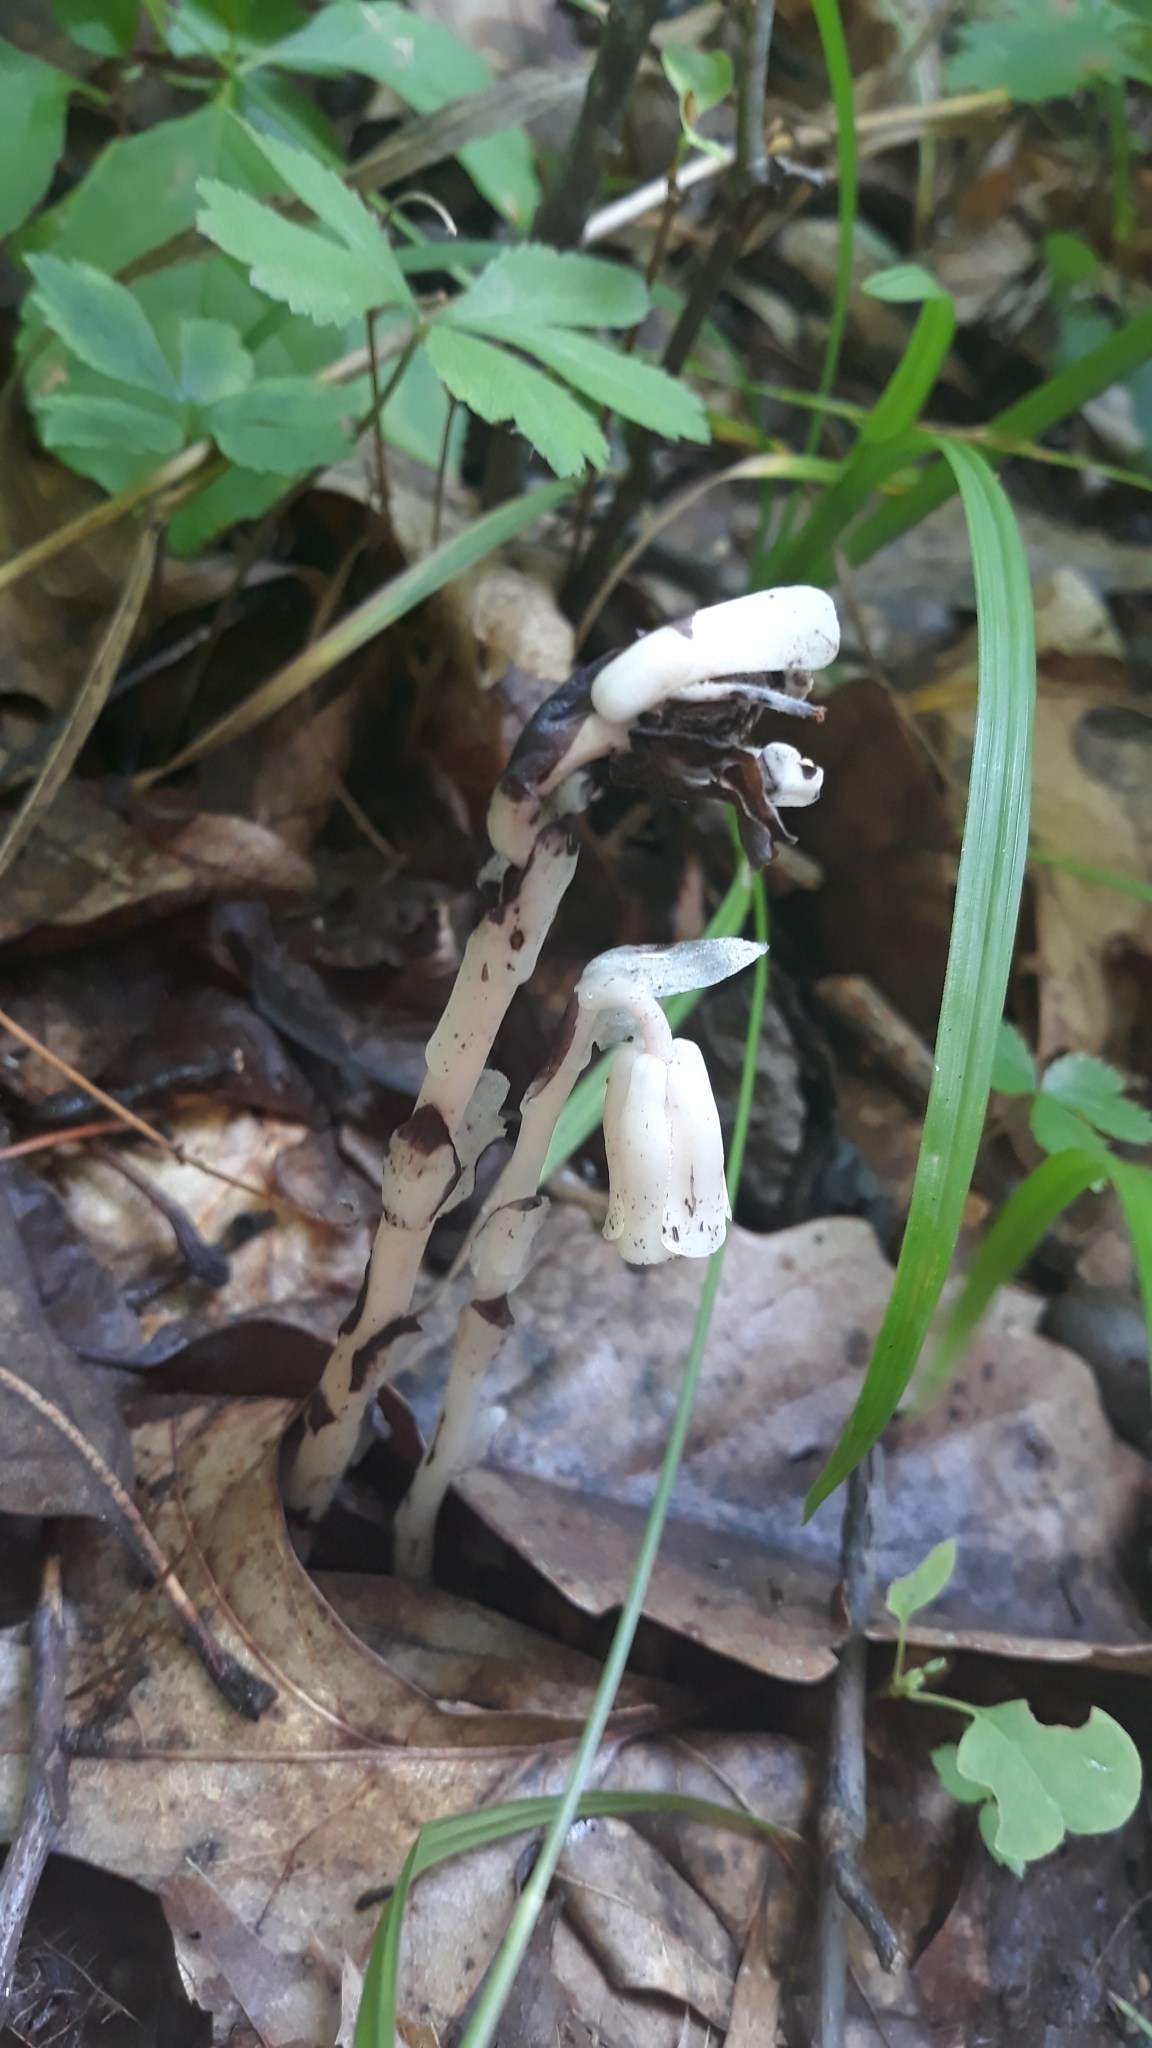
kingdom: Plantae
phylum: Tracheophyta
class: Magnoliopsida
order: Ericales
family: Ericaceae
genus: Monotropa
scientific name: Monotropa uniflora
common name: Convulsion root
